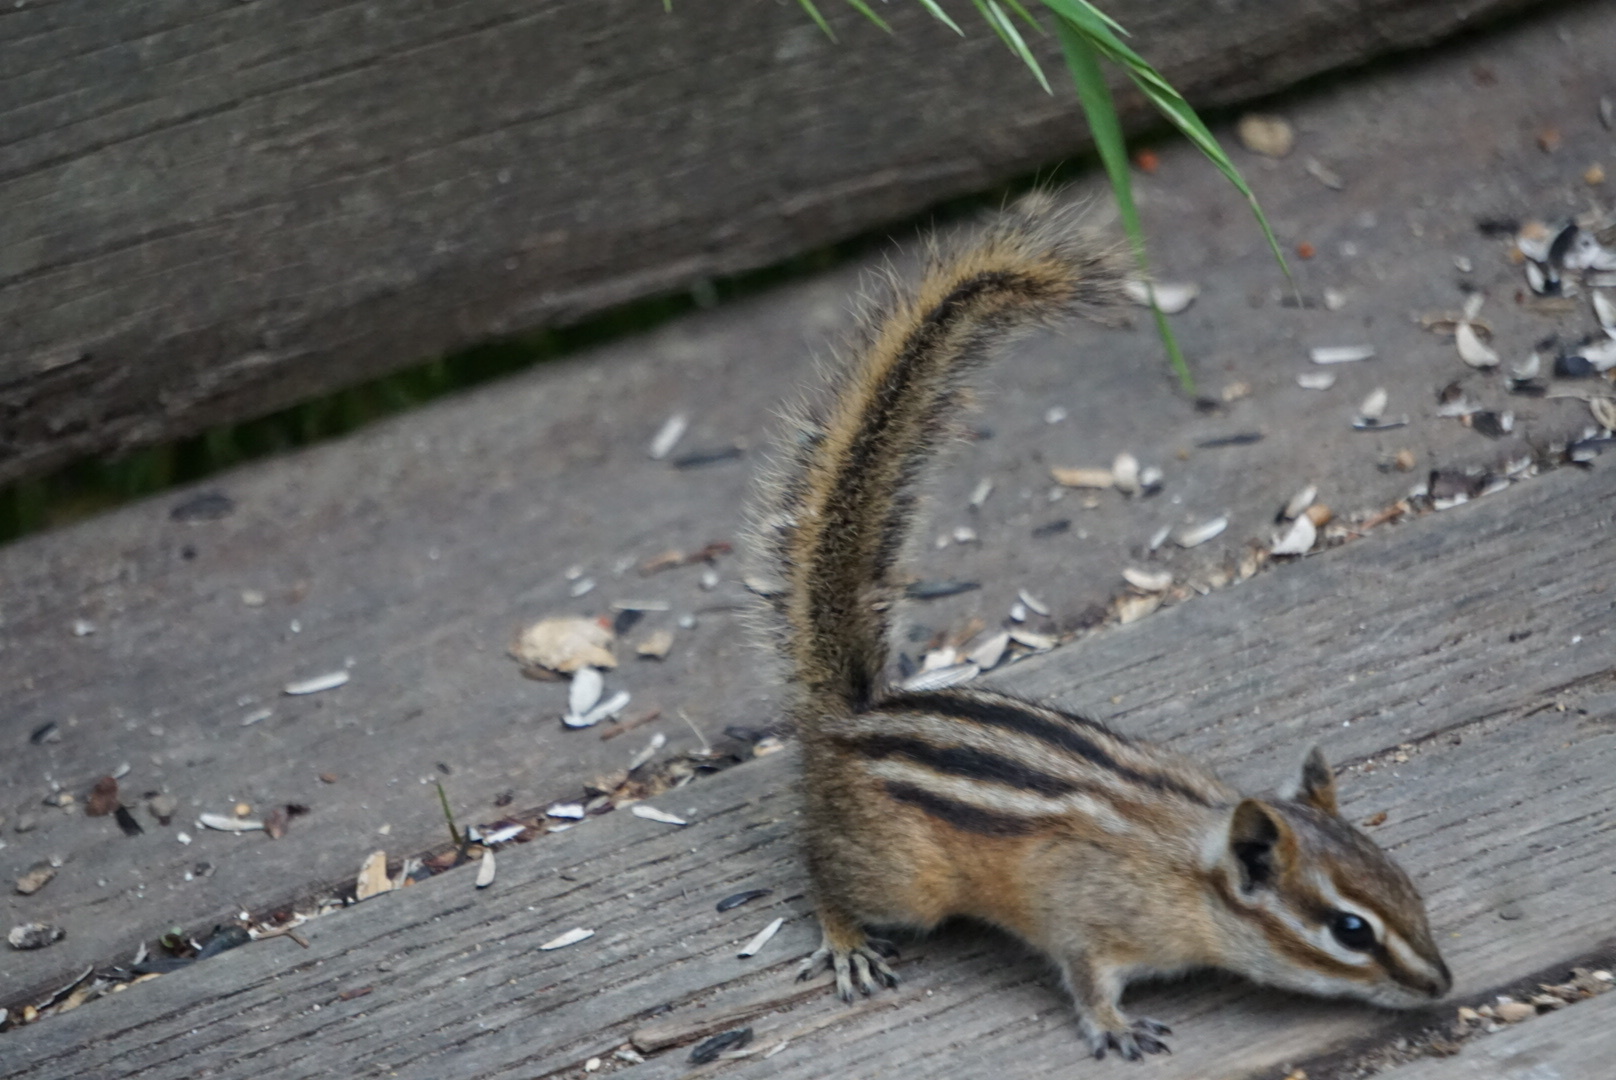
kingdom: Animalia
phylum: Chordata
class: Mammalia
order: Rodentia
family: Sciuridae
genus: Tamias
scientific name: Tamias minimus
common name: Least chipmunk
